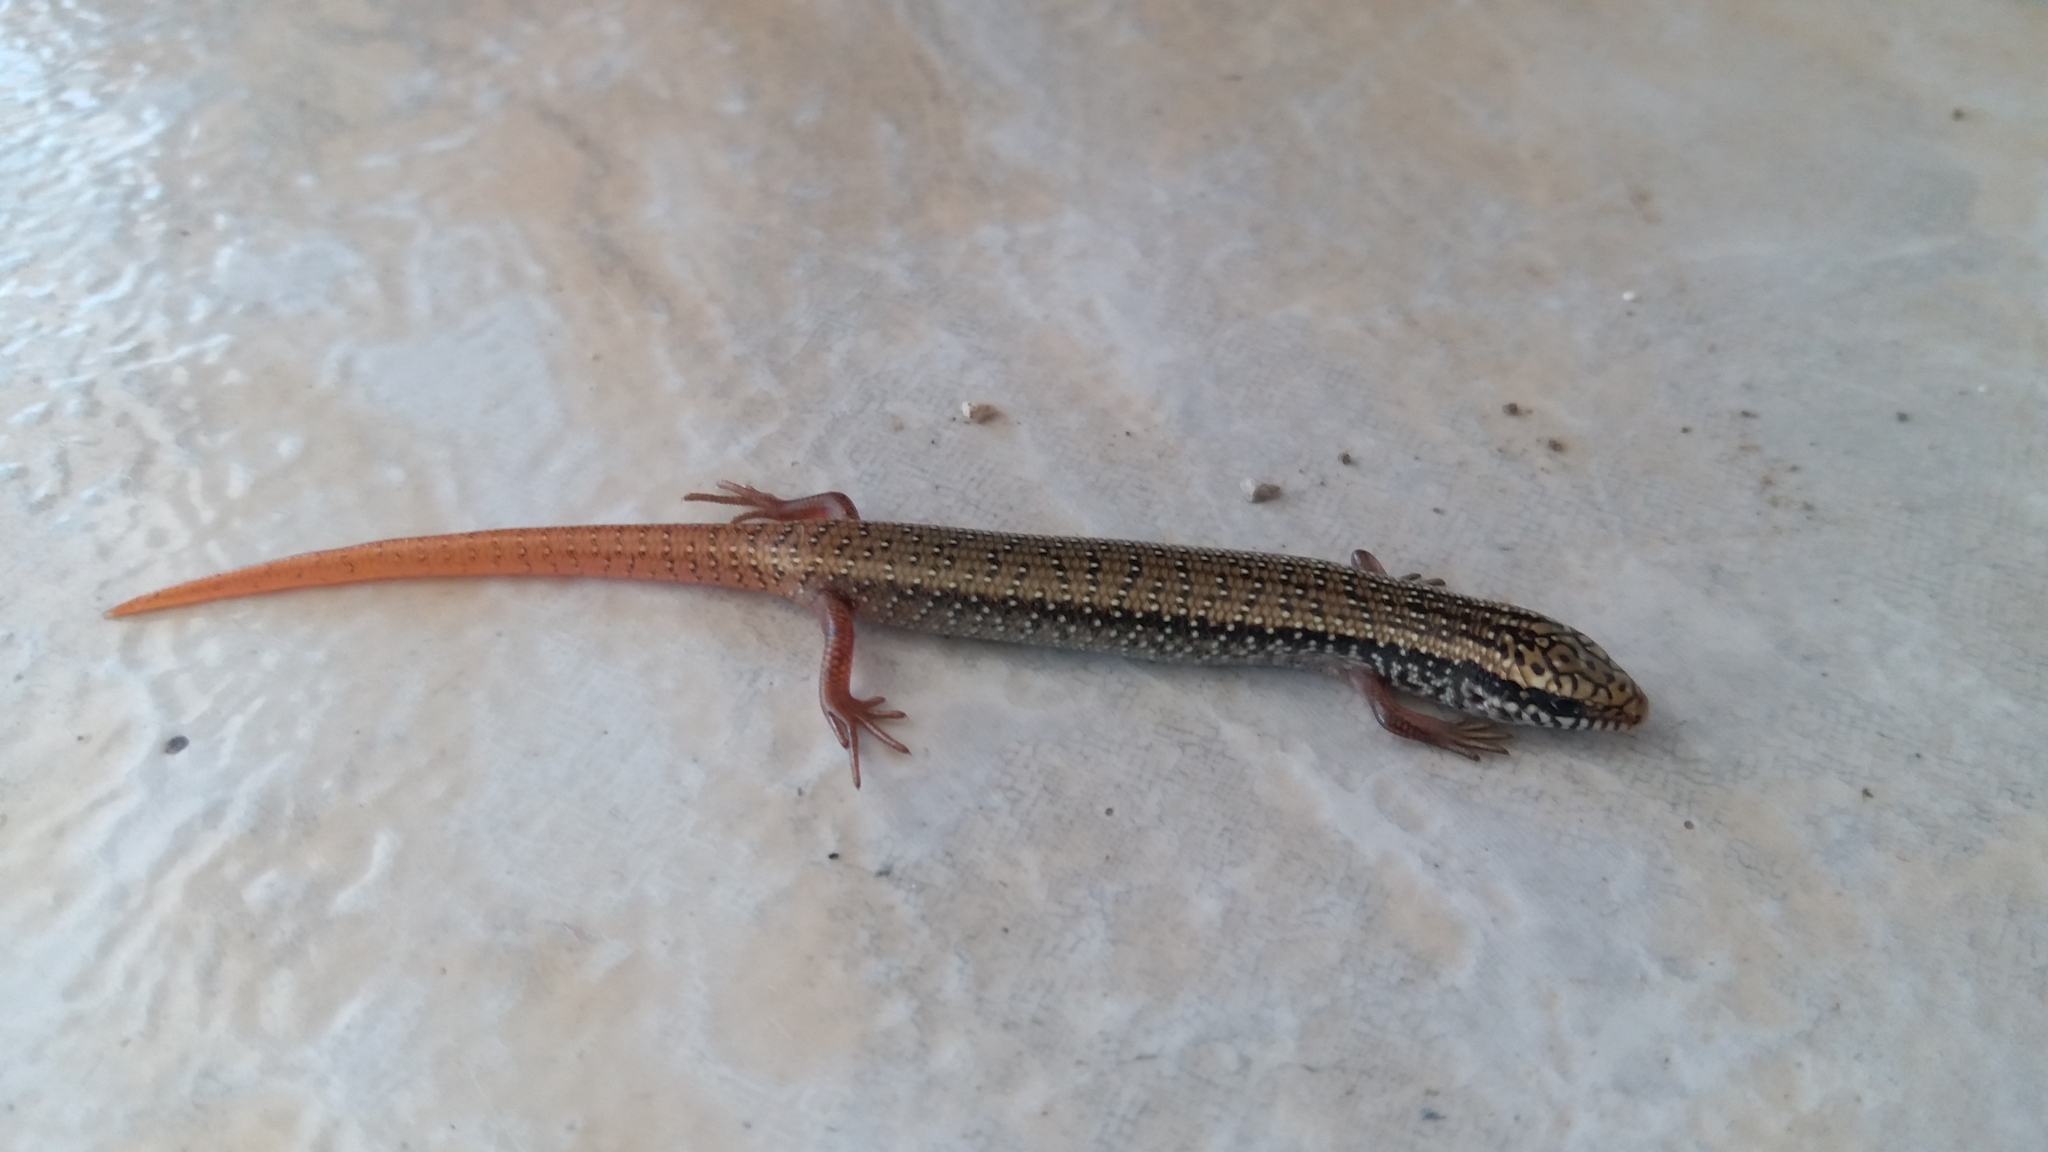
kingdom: Animalia
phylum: Chordata
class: Squamata
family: Scincidae
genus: Chalcides
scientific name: Chalcides ocellatus
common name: Ocellated skink
